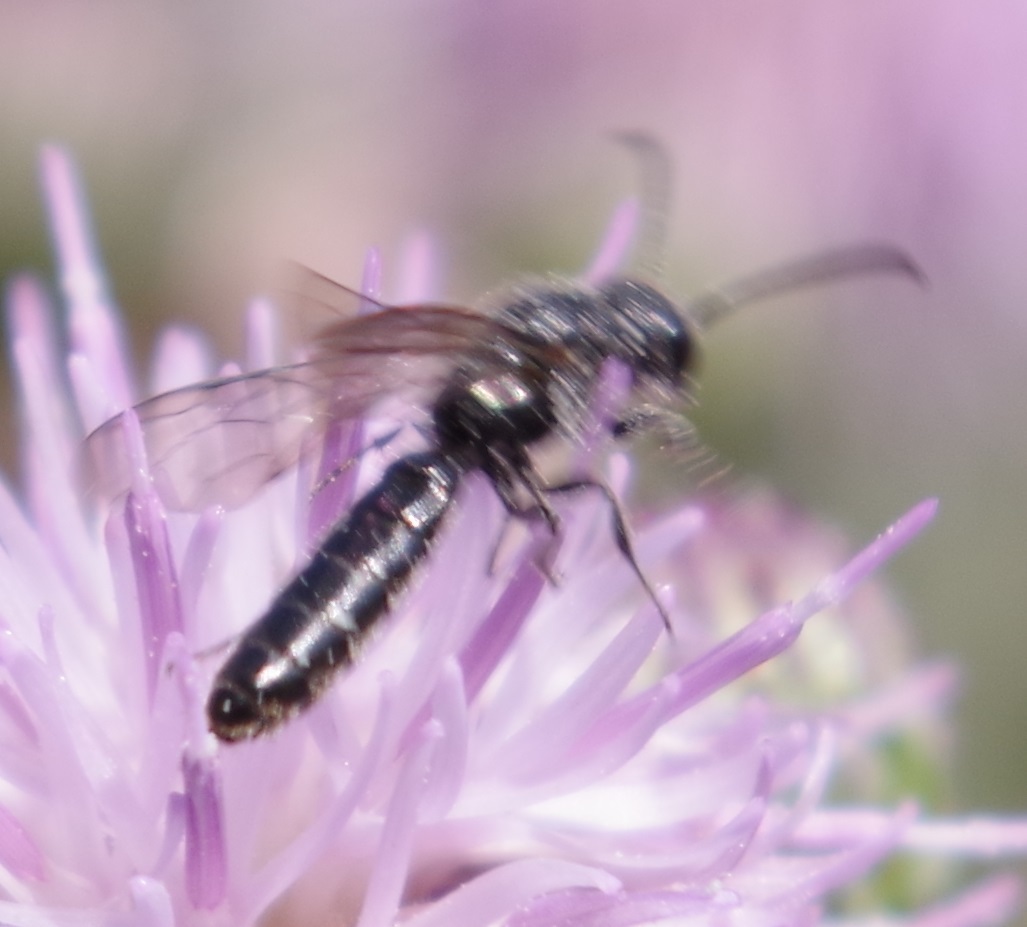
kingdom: Animalia
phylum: Arthropoda
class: Insecta
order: Hymenoptera
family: Sapygidae
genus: Sapygina
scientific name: Sapygina decemguttata
